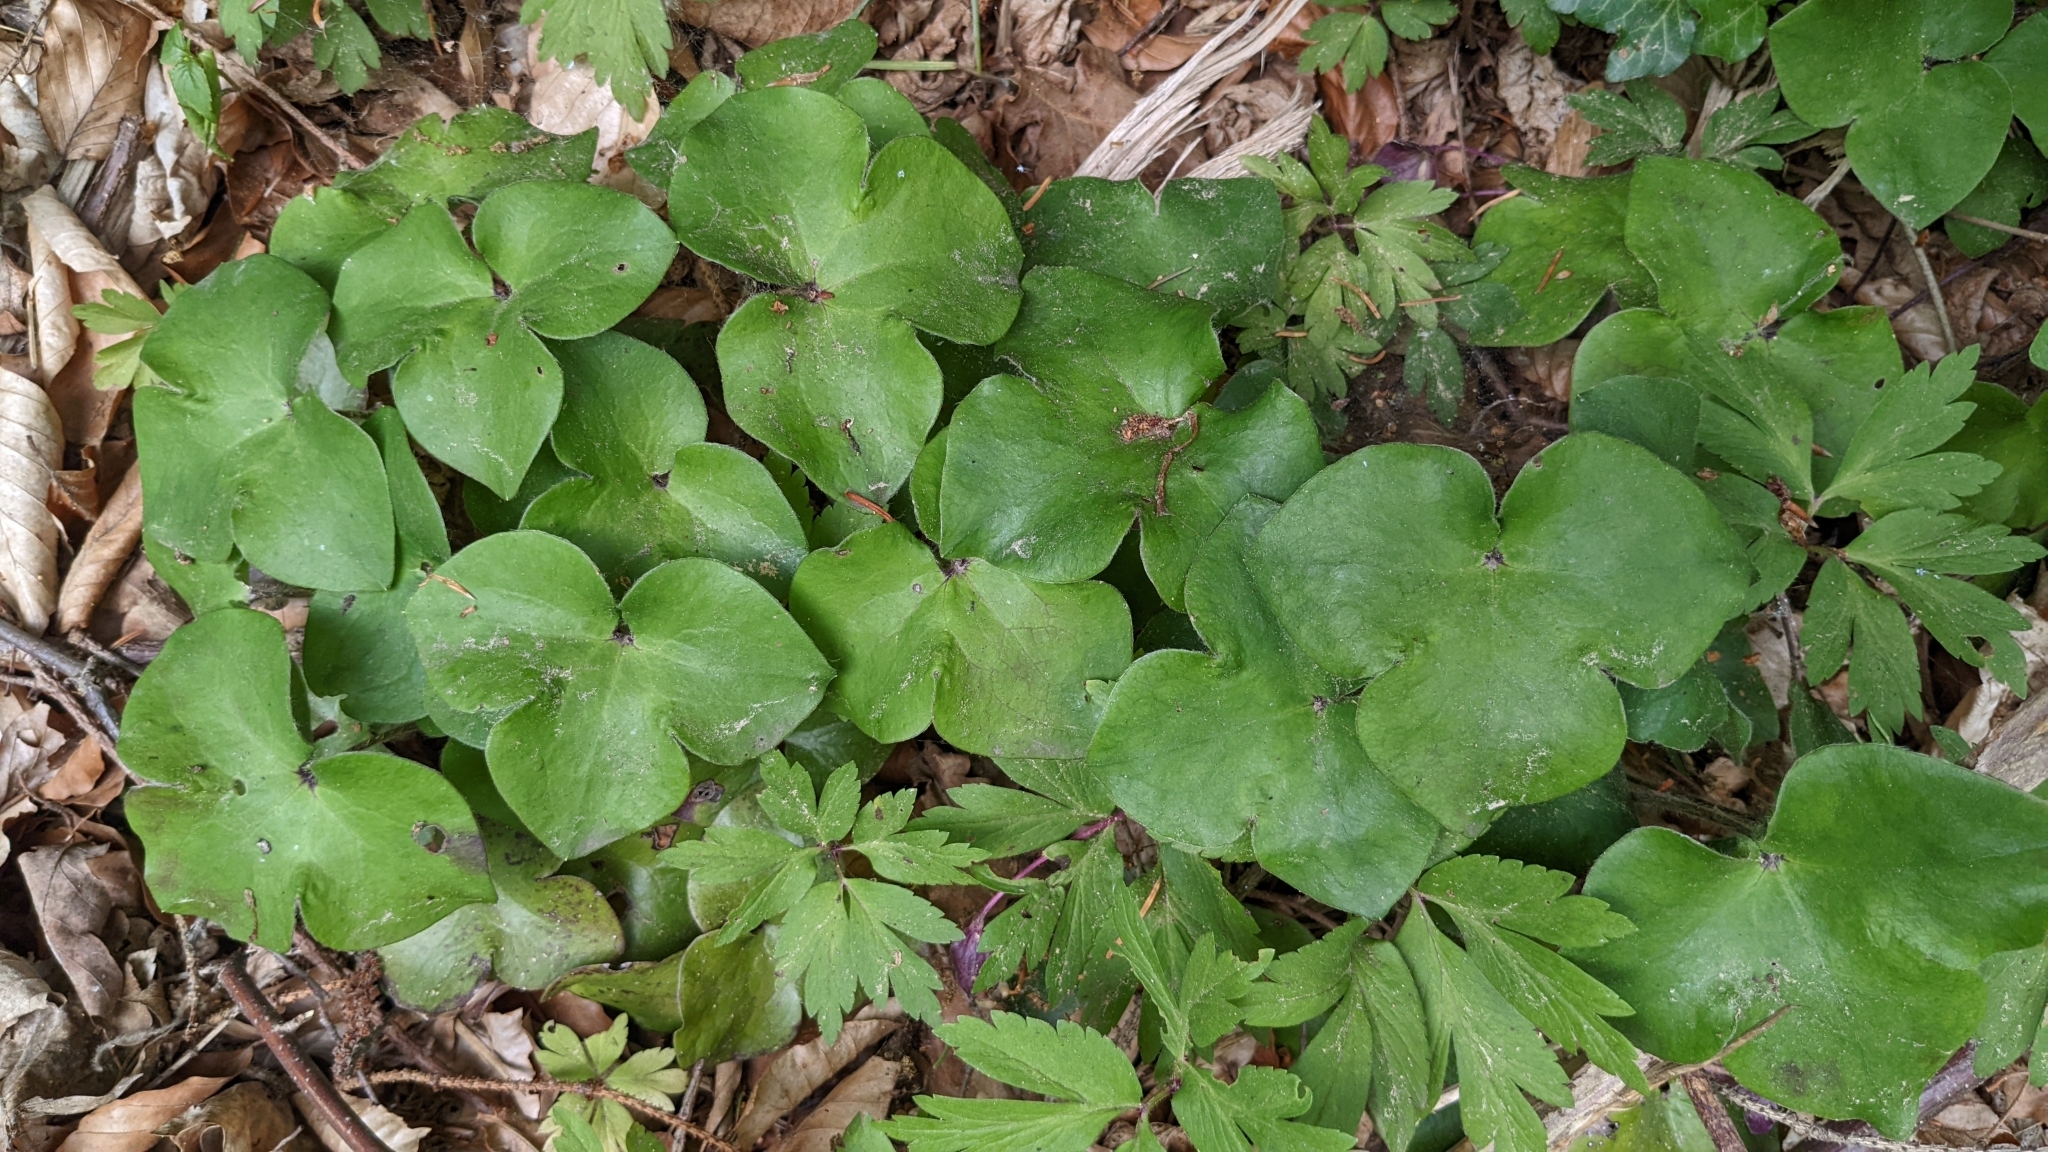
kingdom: Plantae
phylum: Tracheophyta
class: Magnoliopsida
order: Ranunculales
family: Ranunculaceae
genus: Hepatica
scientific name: Hepatica nobilis
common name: Liverleaf
